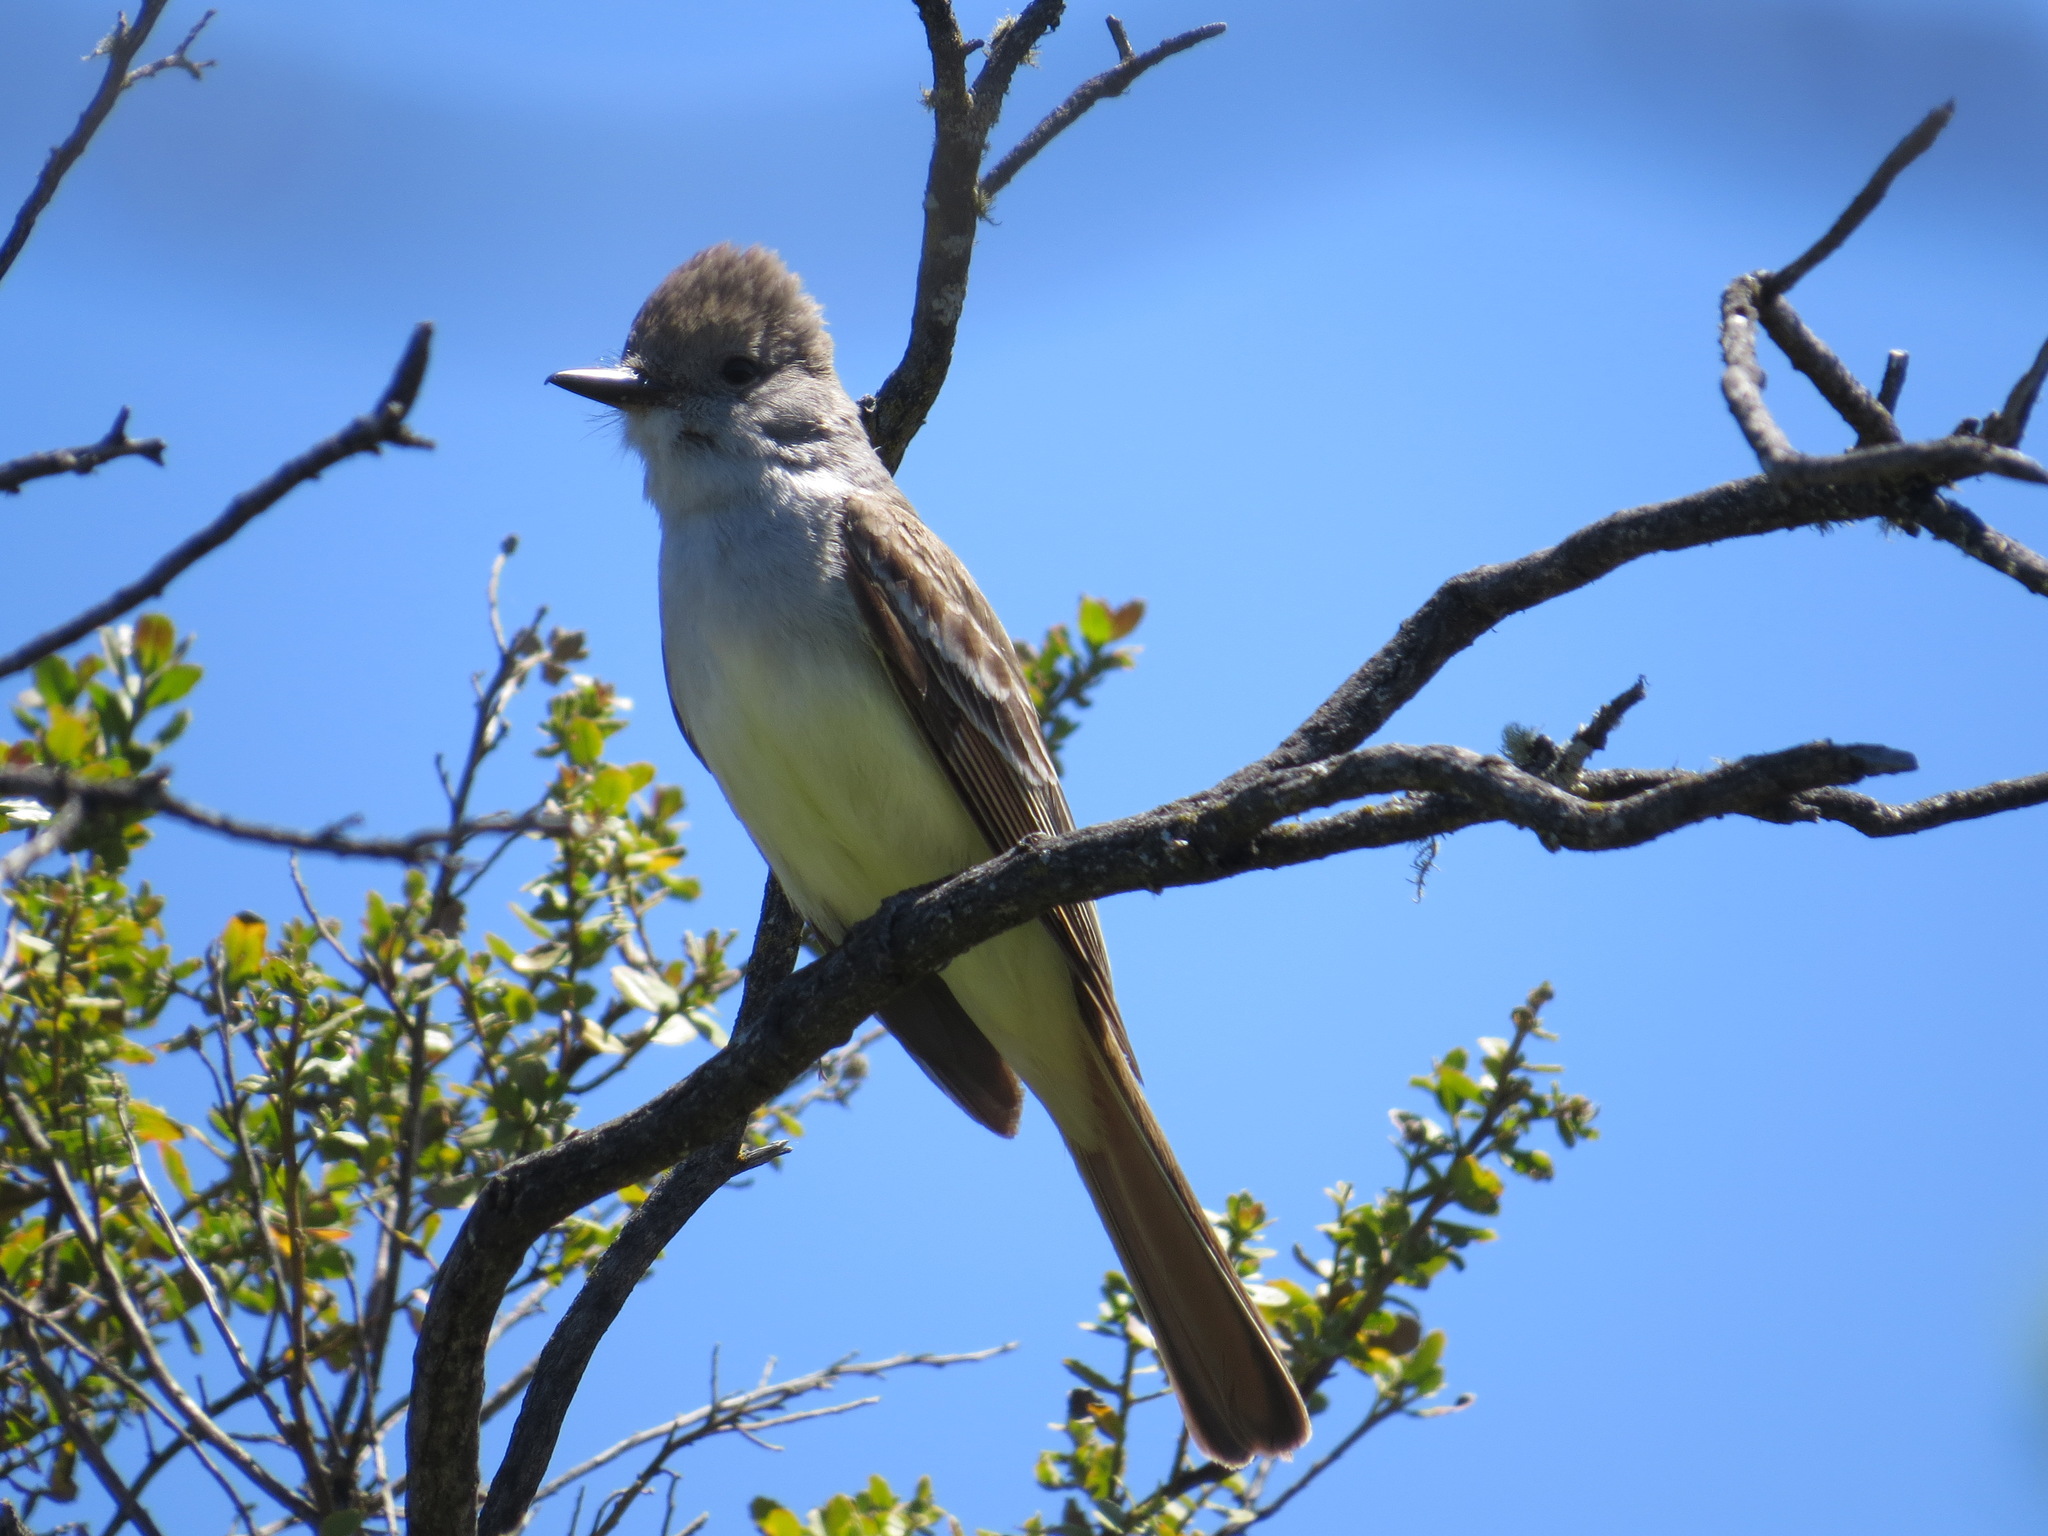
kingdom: Animalia
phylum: Chordata
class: Aves
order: Passeriformes
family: Tyrannidae
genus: Myiarchus
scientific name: Myiarchus cinerascens
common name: Ash-throated flycatcher
